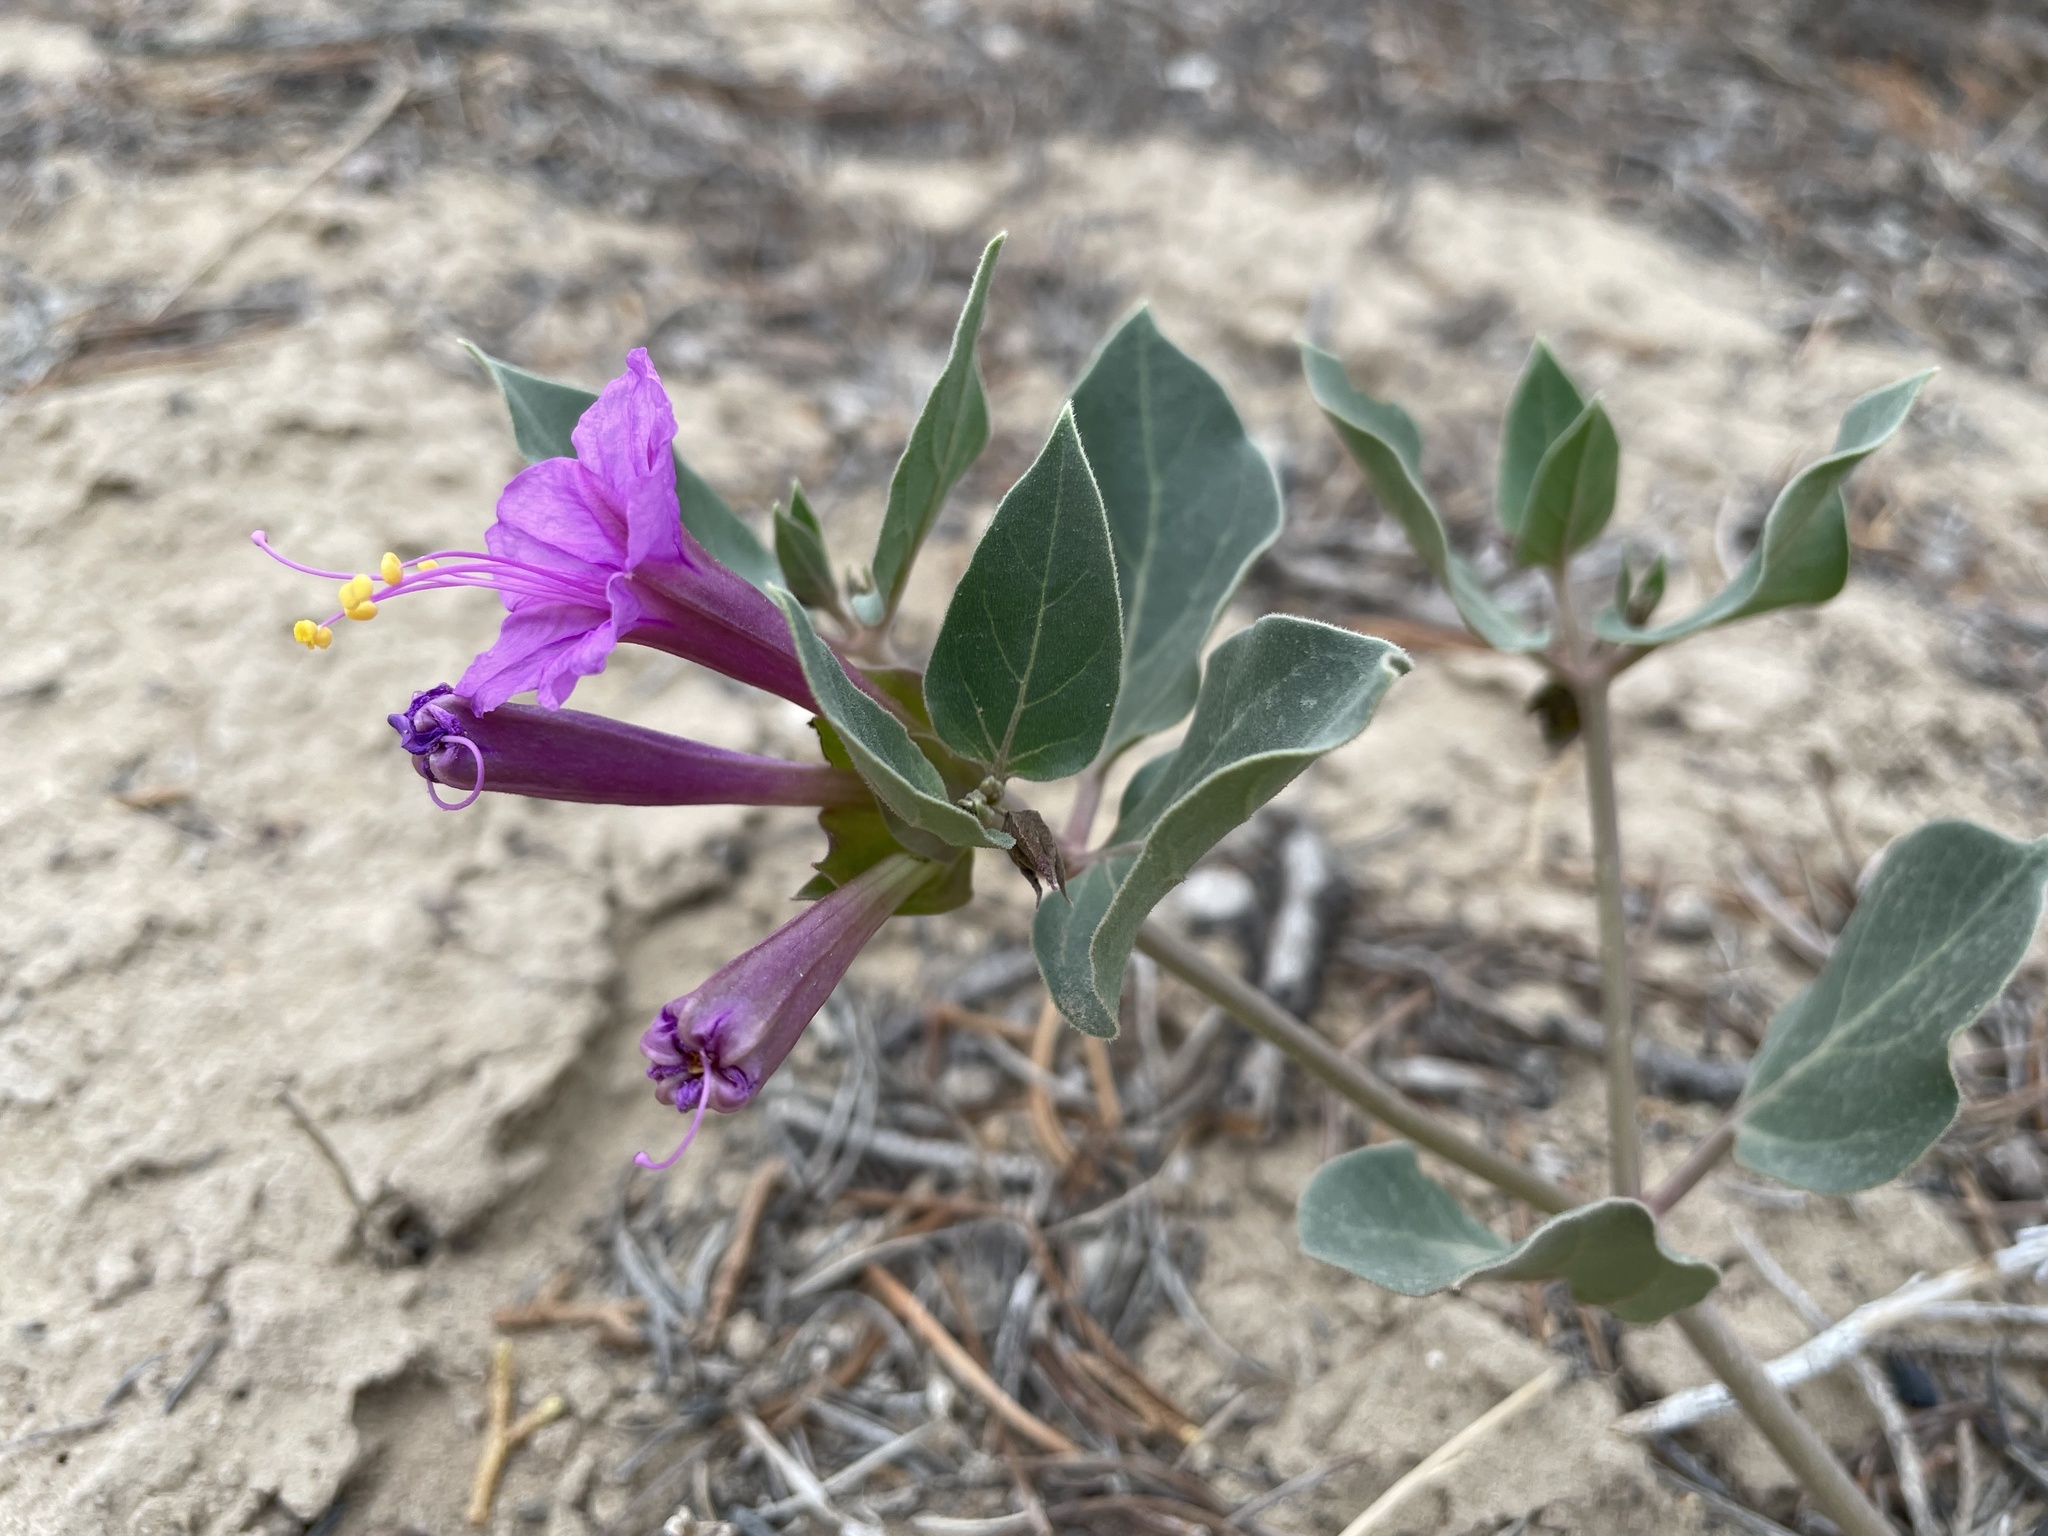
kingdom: Plantae
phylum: Tracheophyta
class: Magnoliopsida
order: Caryophyllales
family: Nyctaginaceae
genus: Mirabilis
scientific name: Mirabilis multiflora
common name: Froebel's four-o'clock
